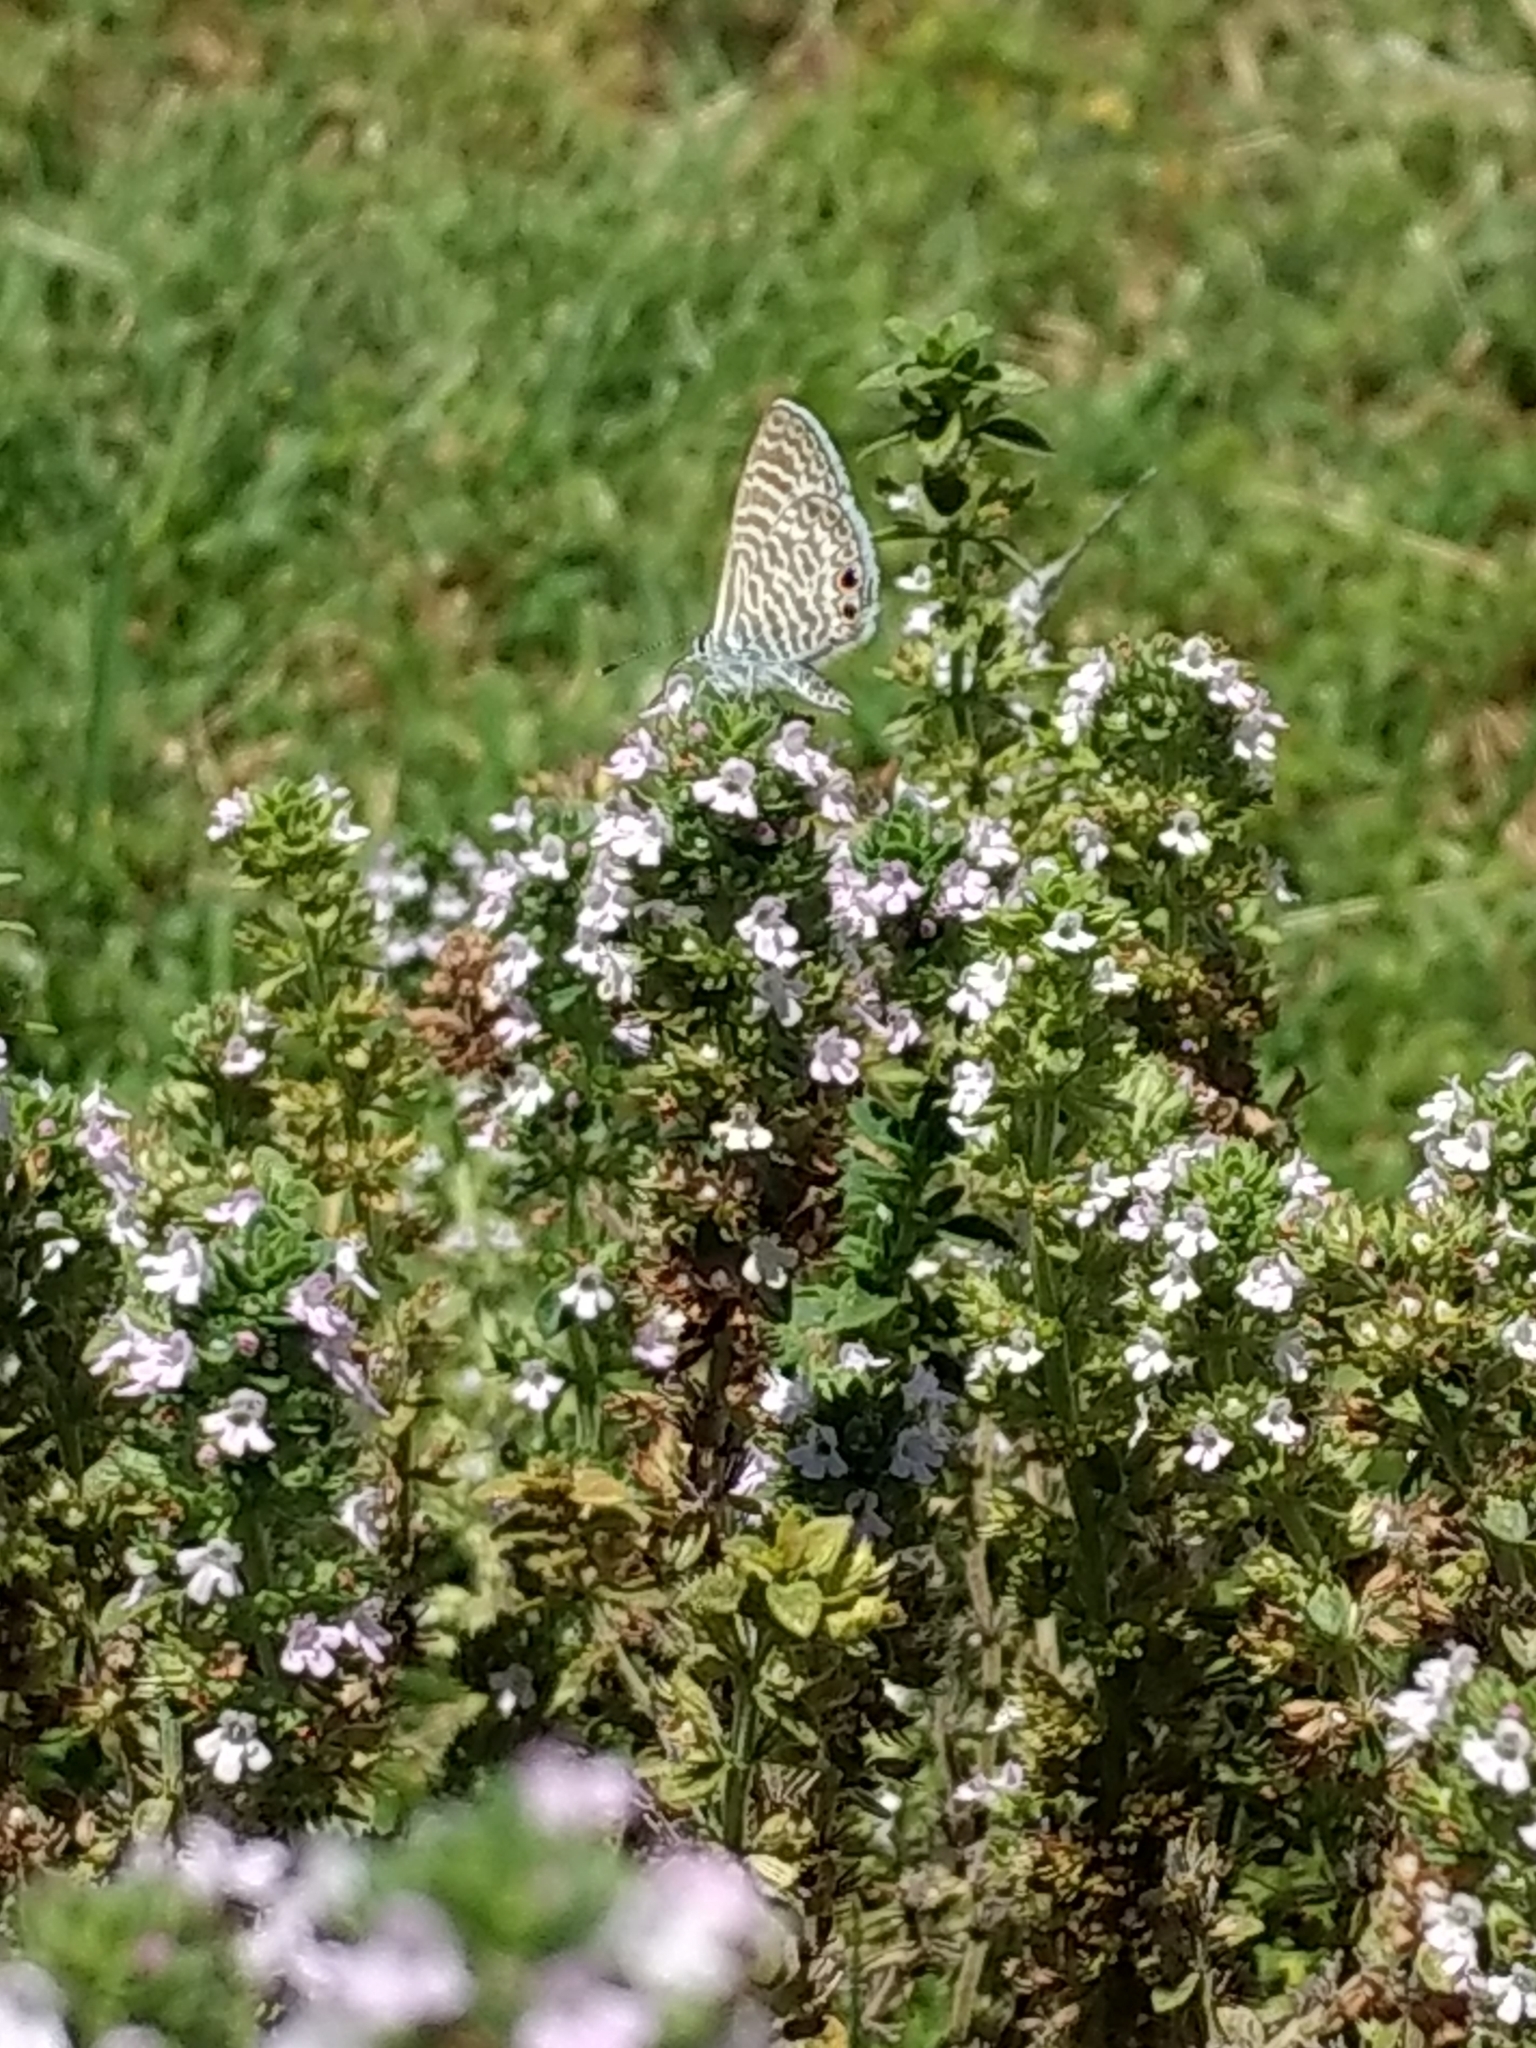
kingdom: Animalia
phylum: Arthropoda
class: Insecta
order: Lepidoptera
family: Lycaenidae
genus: Leptotes
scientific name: Leptotes marina
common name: Marine blue
